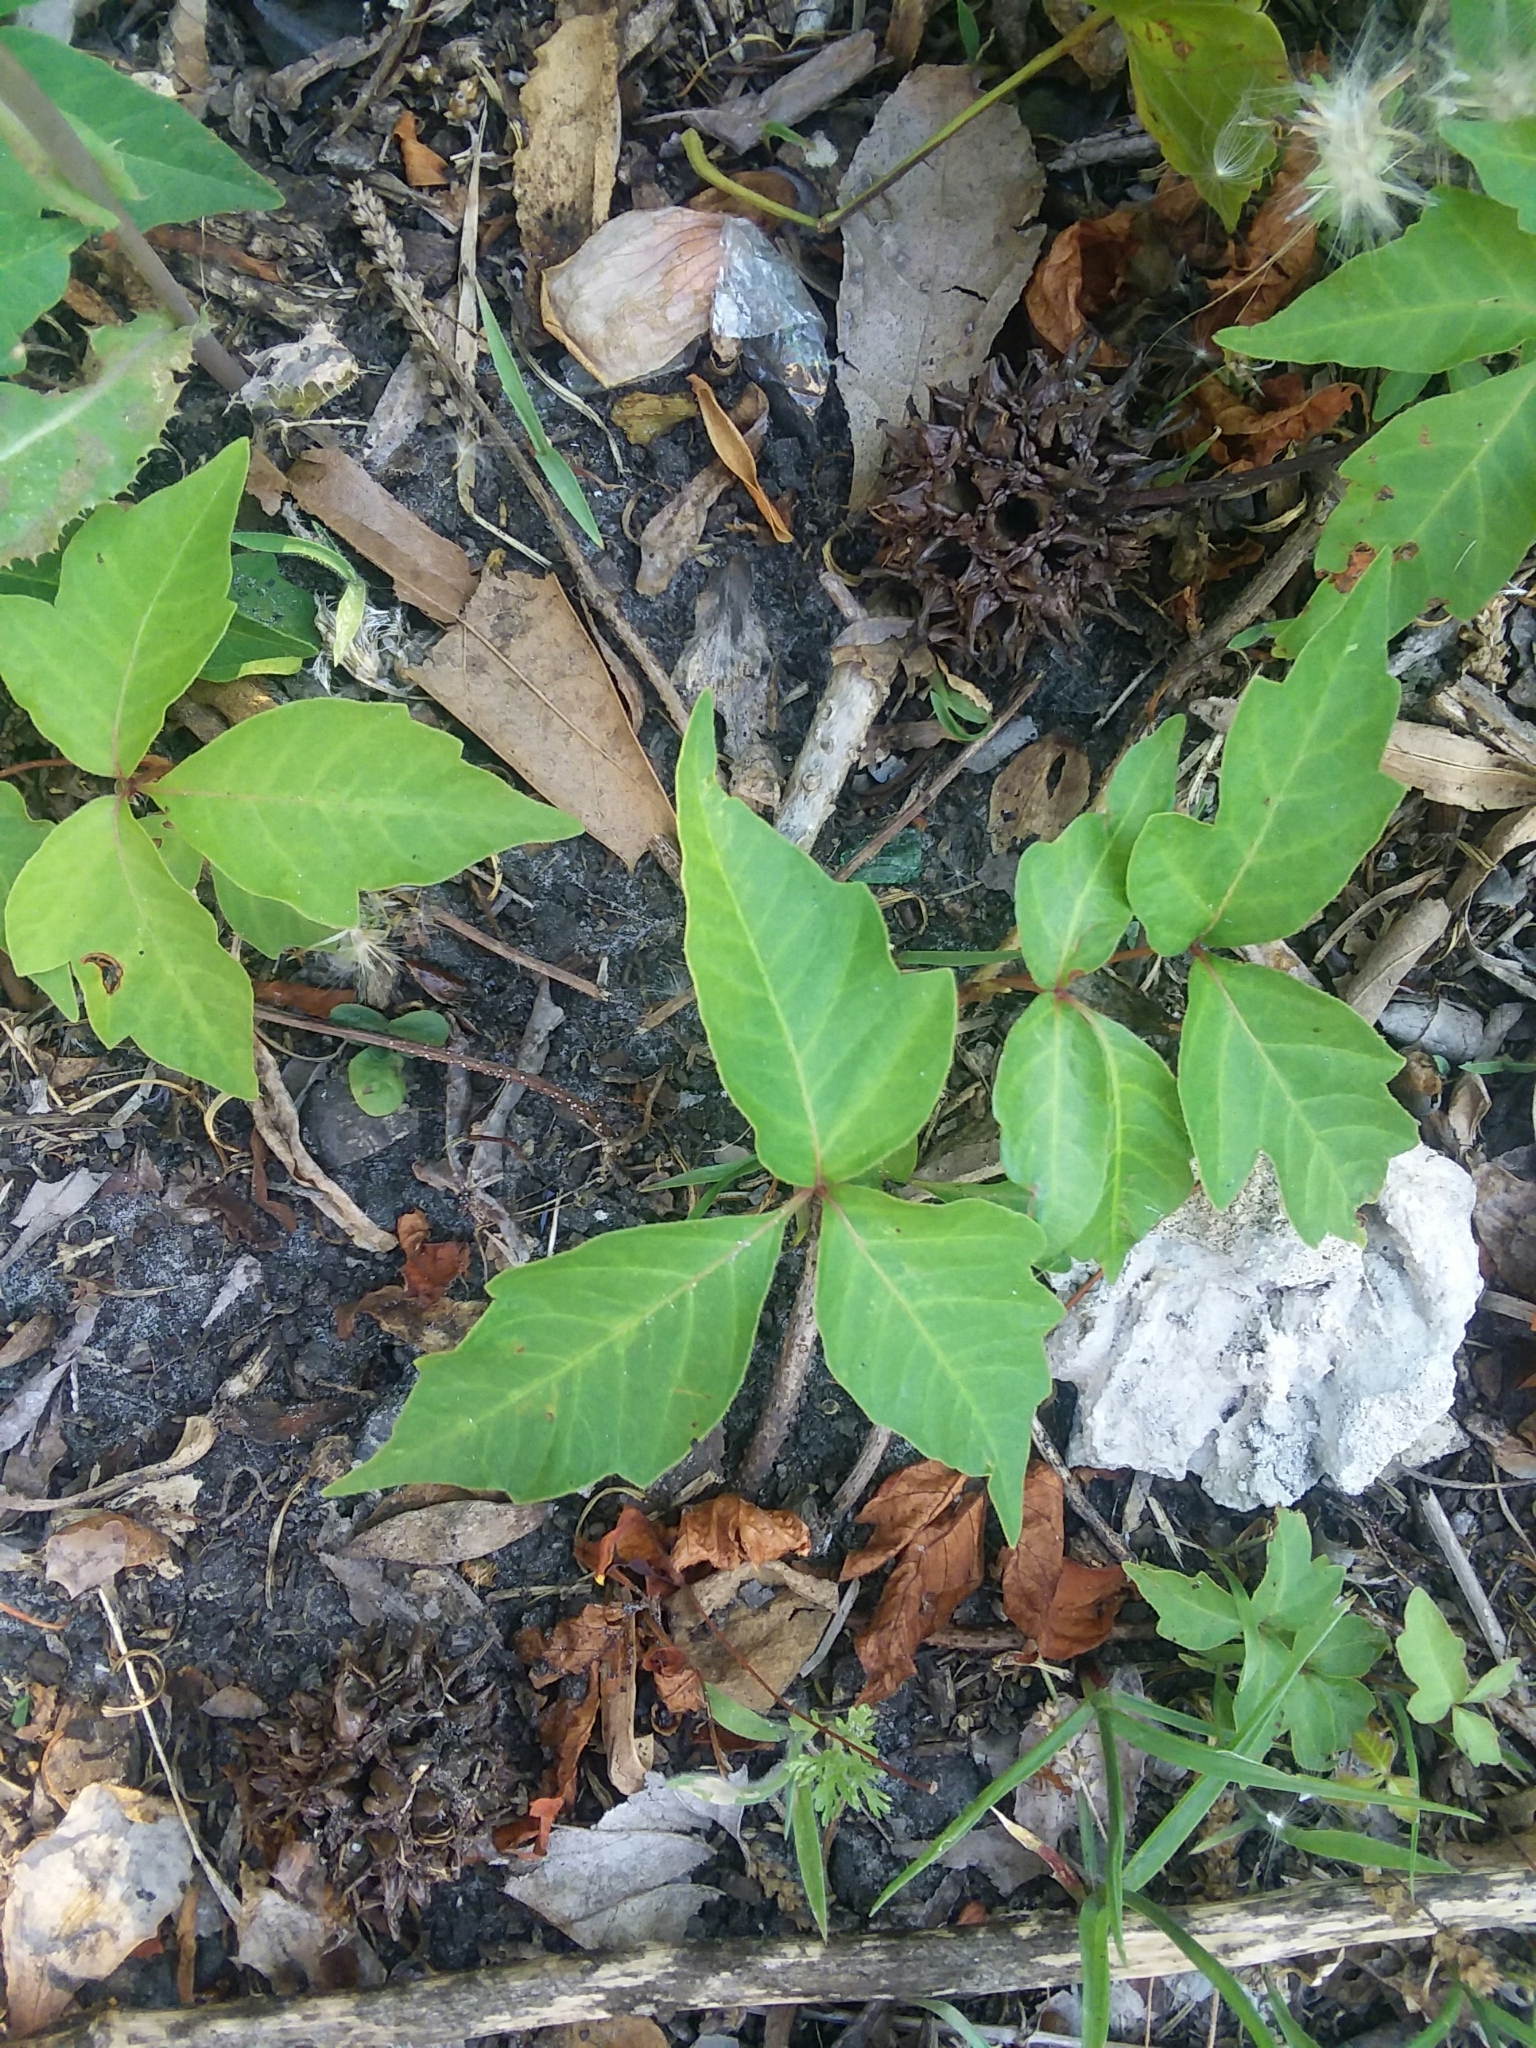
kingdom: Plantae
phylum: Tracheophyta
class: Magnoliopsida
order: Sapindales
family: Anacardiaceae
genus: Toxicodendron
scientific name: Toxicodendron radicans
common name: Poison ivy
